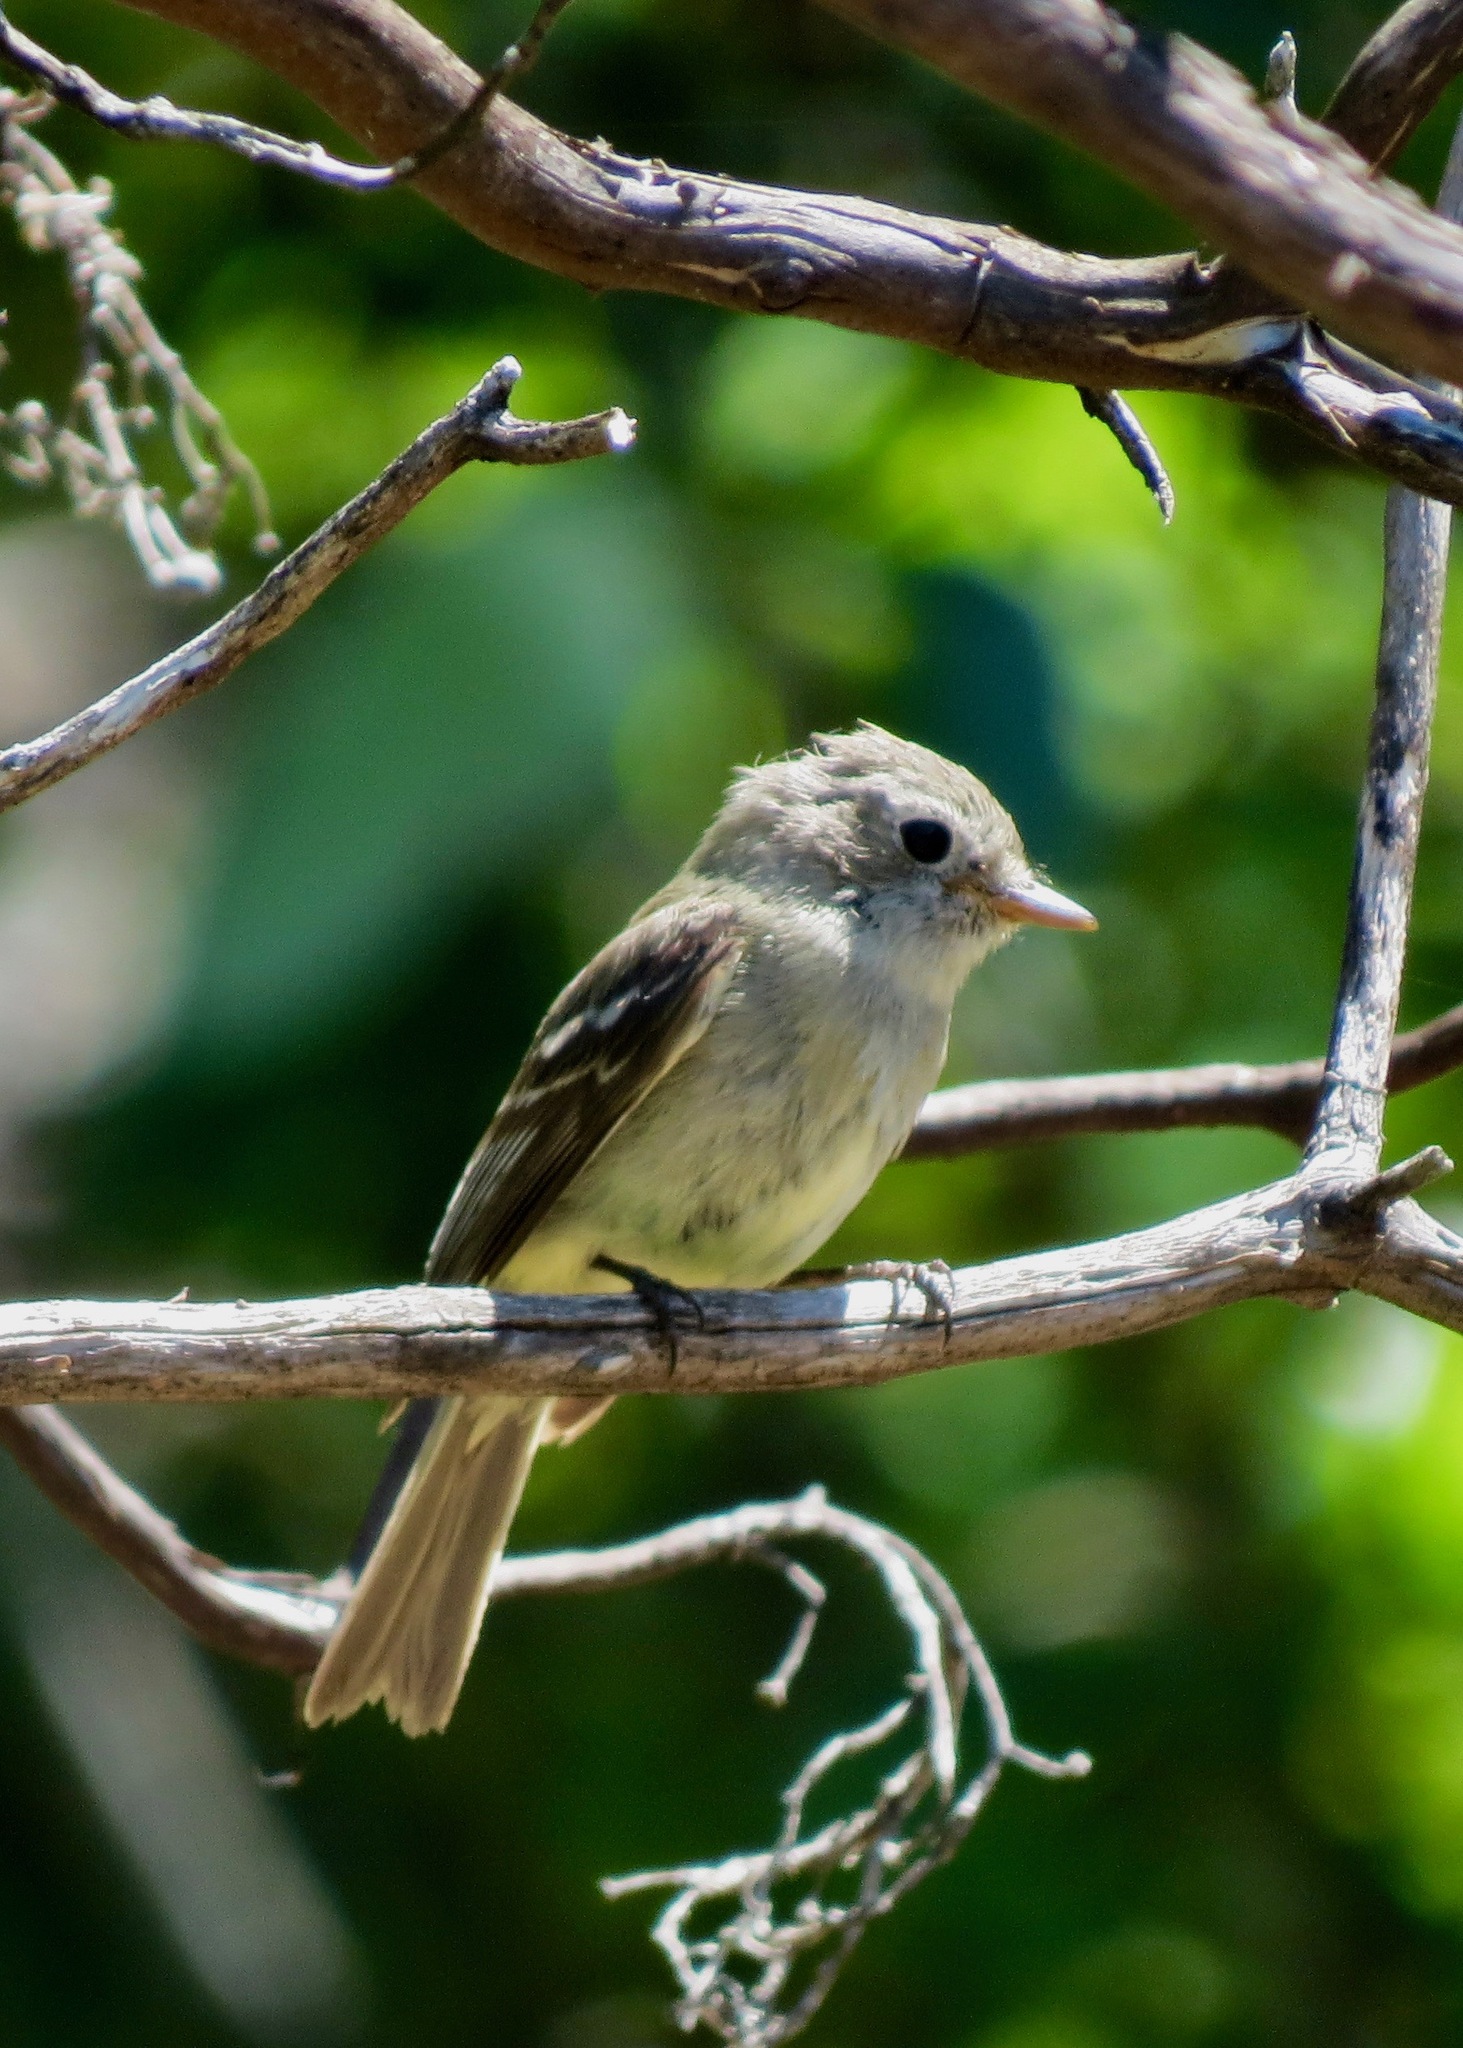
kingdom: Animalia
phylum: Chordata
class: Aves
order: Passeriformes
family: Tyrannidae
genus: Empidonax
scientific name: Empidonax hammondii
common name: Hammond's flycatcher
